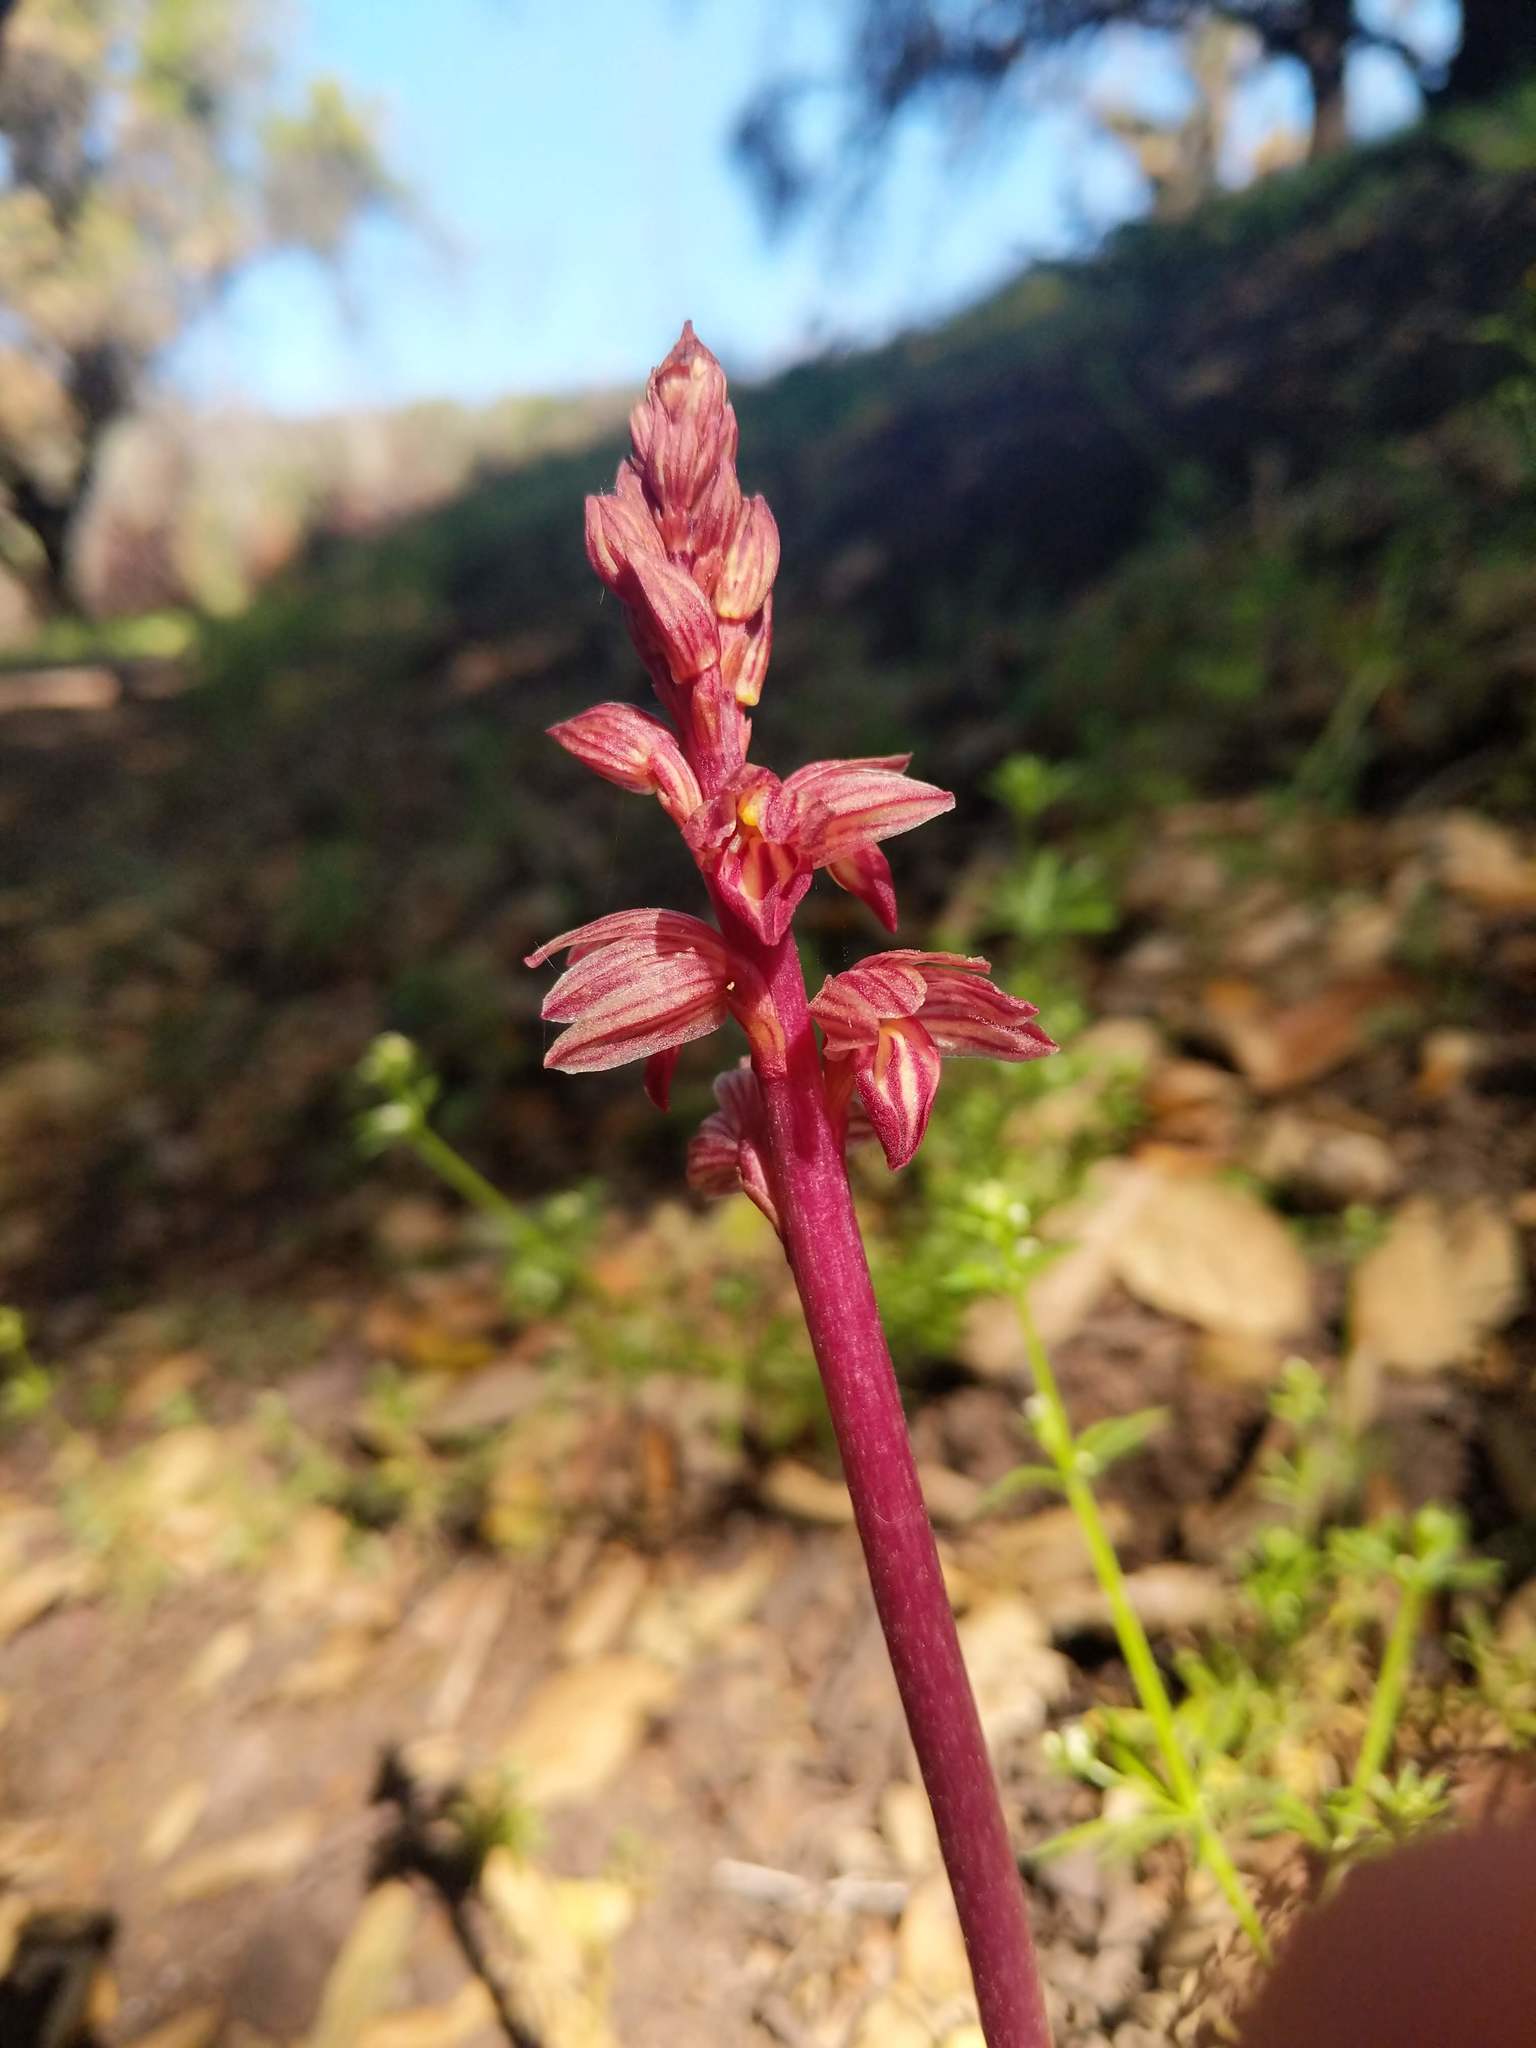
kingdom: Plantae
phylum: Tracheophyta
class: Liliopsida
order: Asparagales
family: Orchidaceae
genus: Corallorhiza
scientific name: Corallorhiza striata
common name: Hooded coralroot
